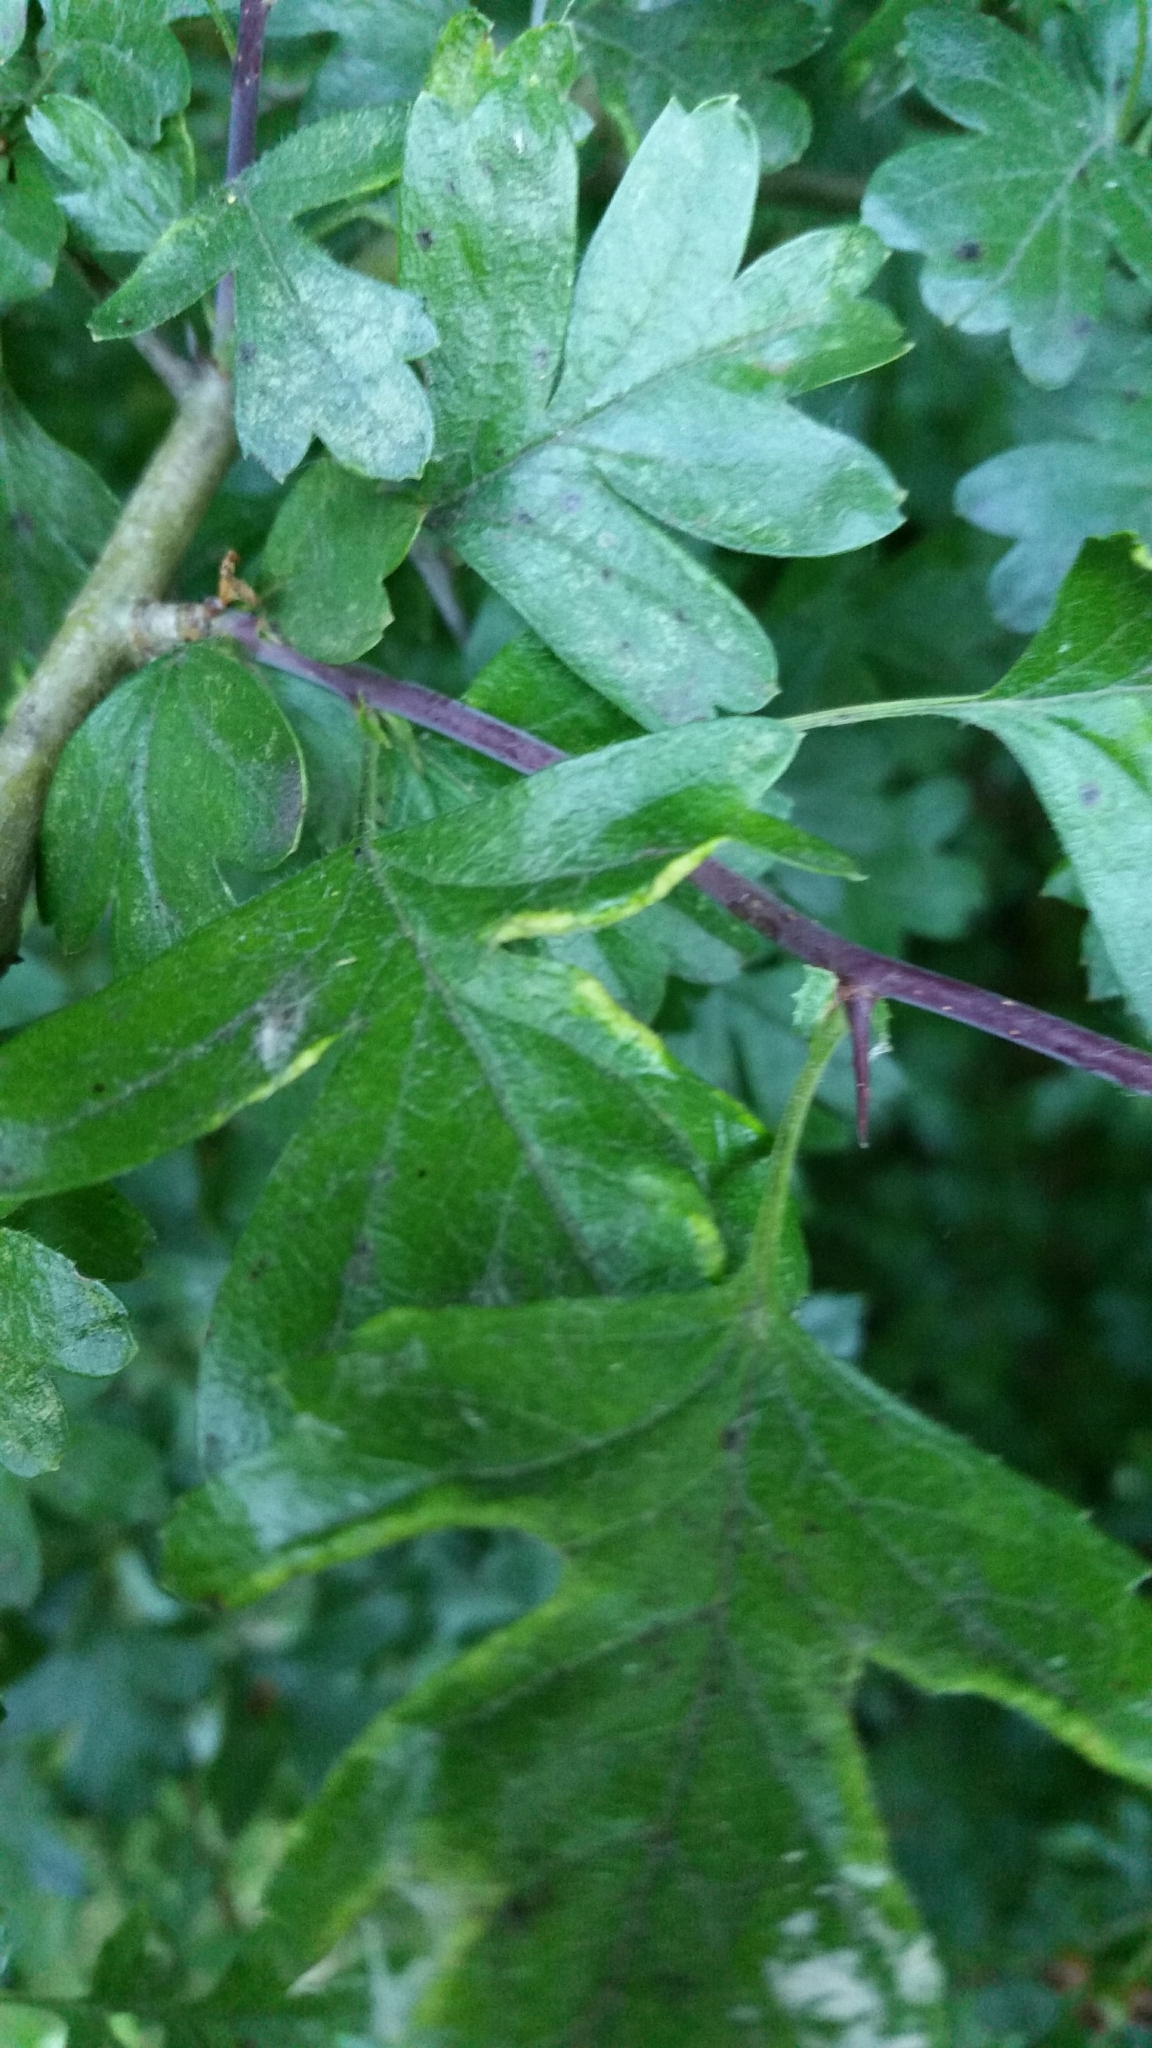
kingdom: Animalia
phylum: Arthropoda
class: Arachnida
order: Trombidiformes
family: Eriophyidae
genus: Phyllocoptes
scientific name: Phyllocoptes goniothorax
